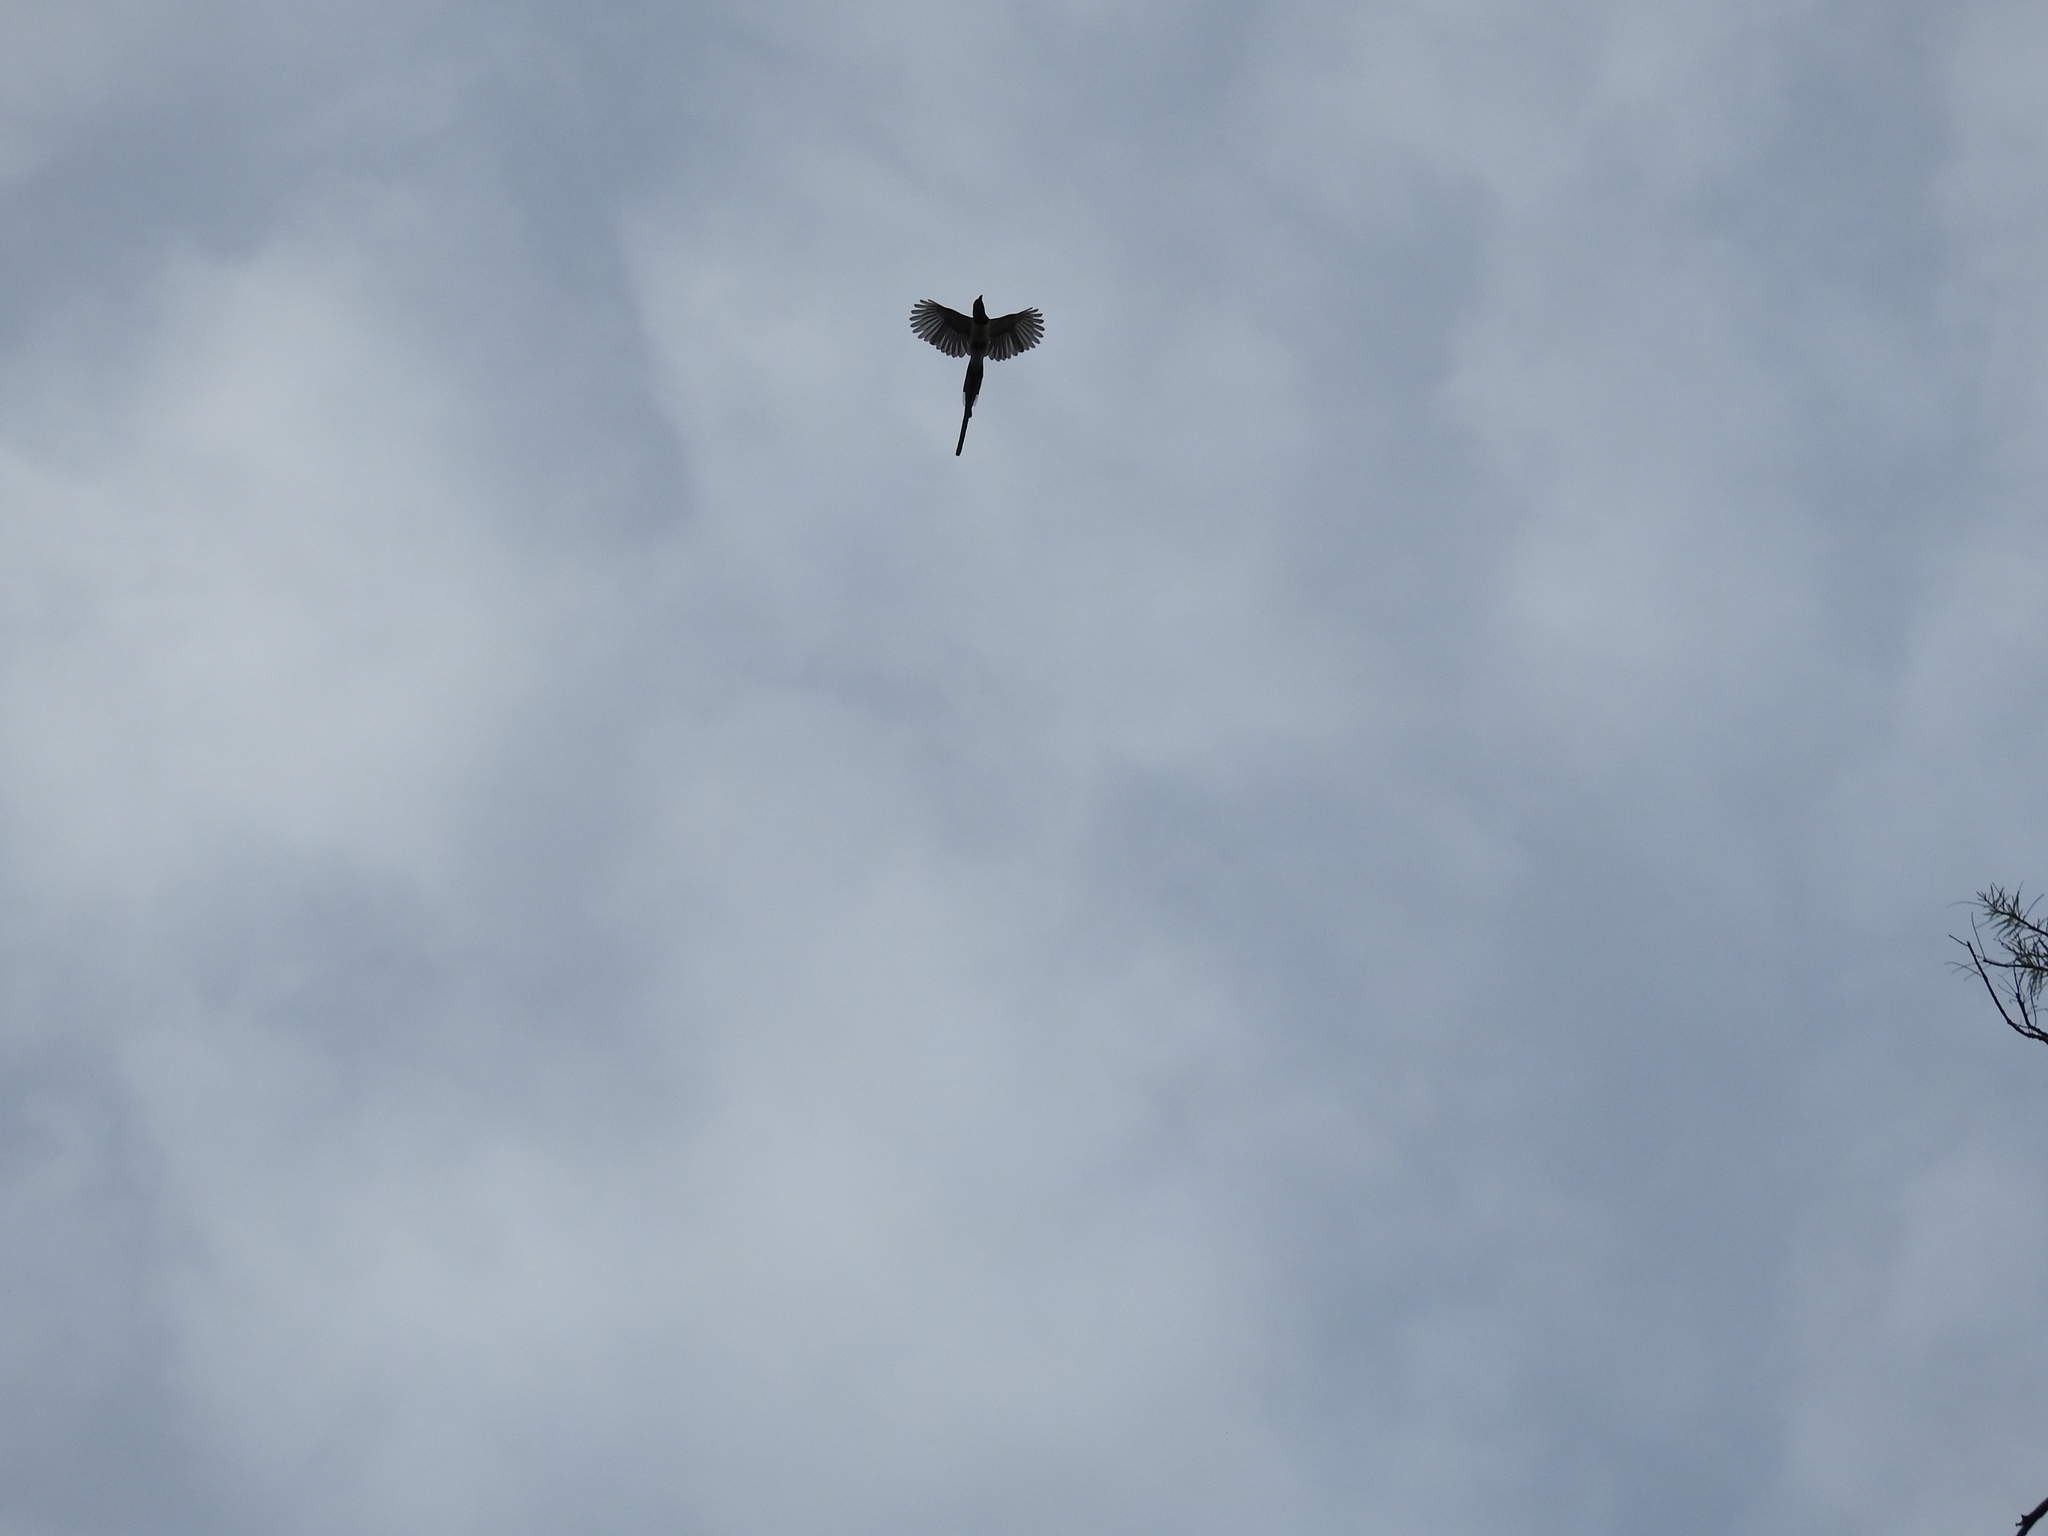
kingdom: Animalia
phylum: Chordata
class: Aves
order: Passeriformes
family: Corvidae
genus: Calocitta
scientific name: Calocitta colliei
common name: Black-throated magpie-jay
